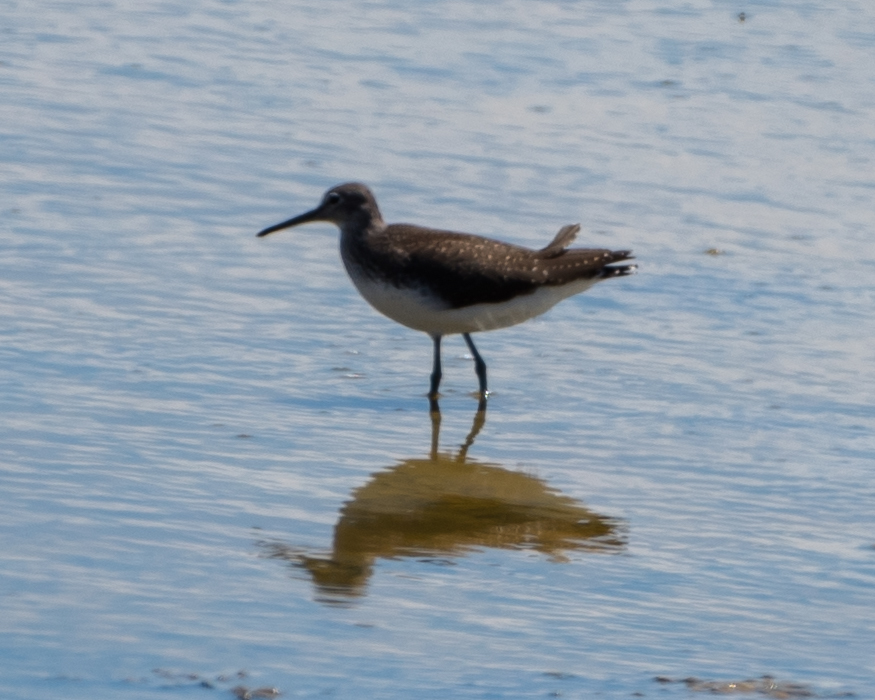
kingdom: Animalia
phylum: Chordata
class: Aves
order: Charadriiformes
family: Scolopacidae
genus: Tringa
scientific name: Tringa ochropus
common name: Green sandpiper
